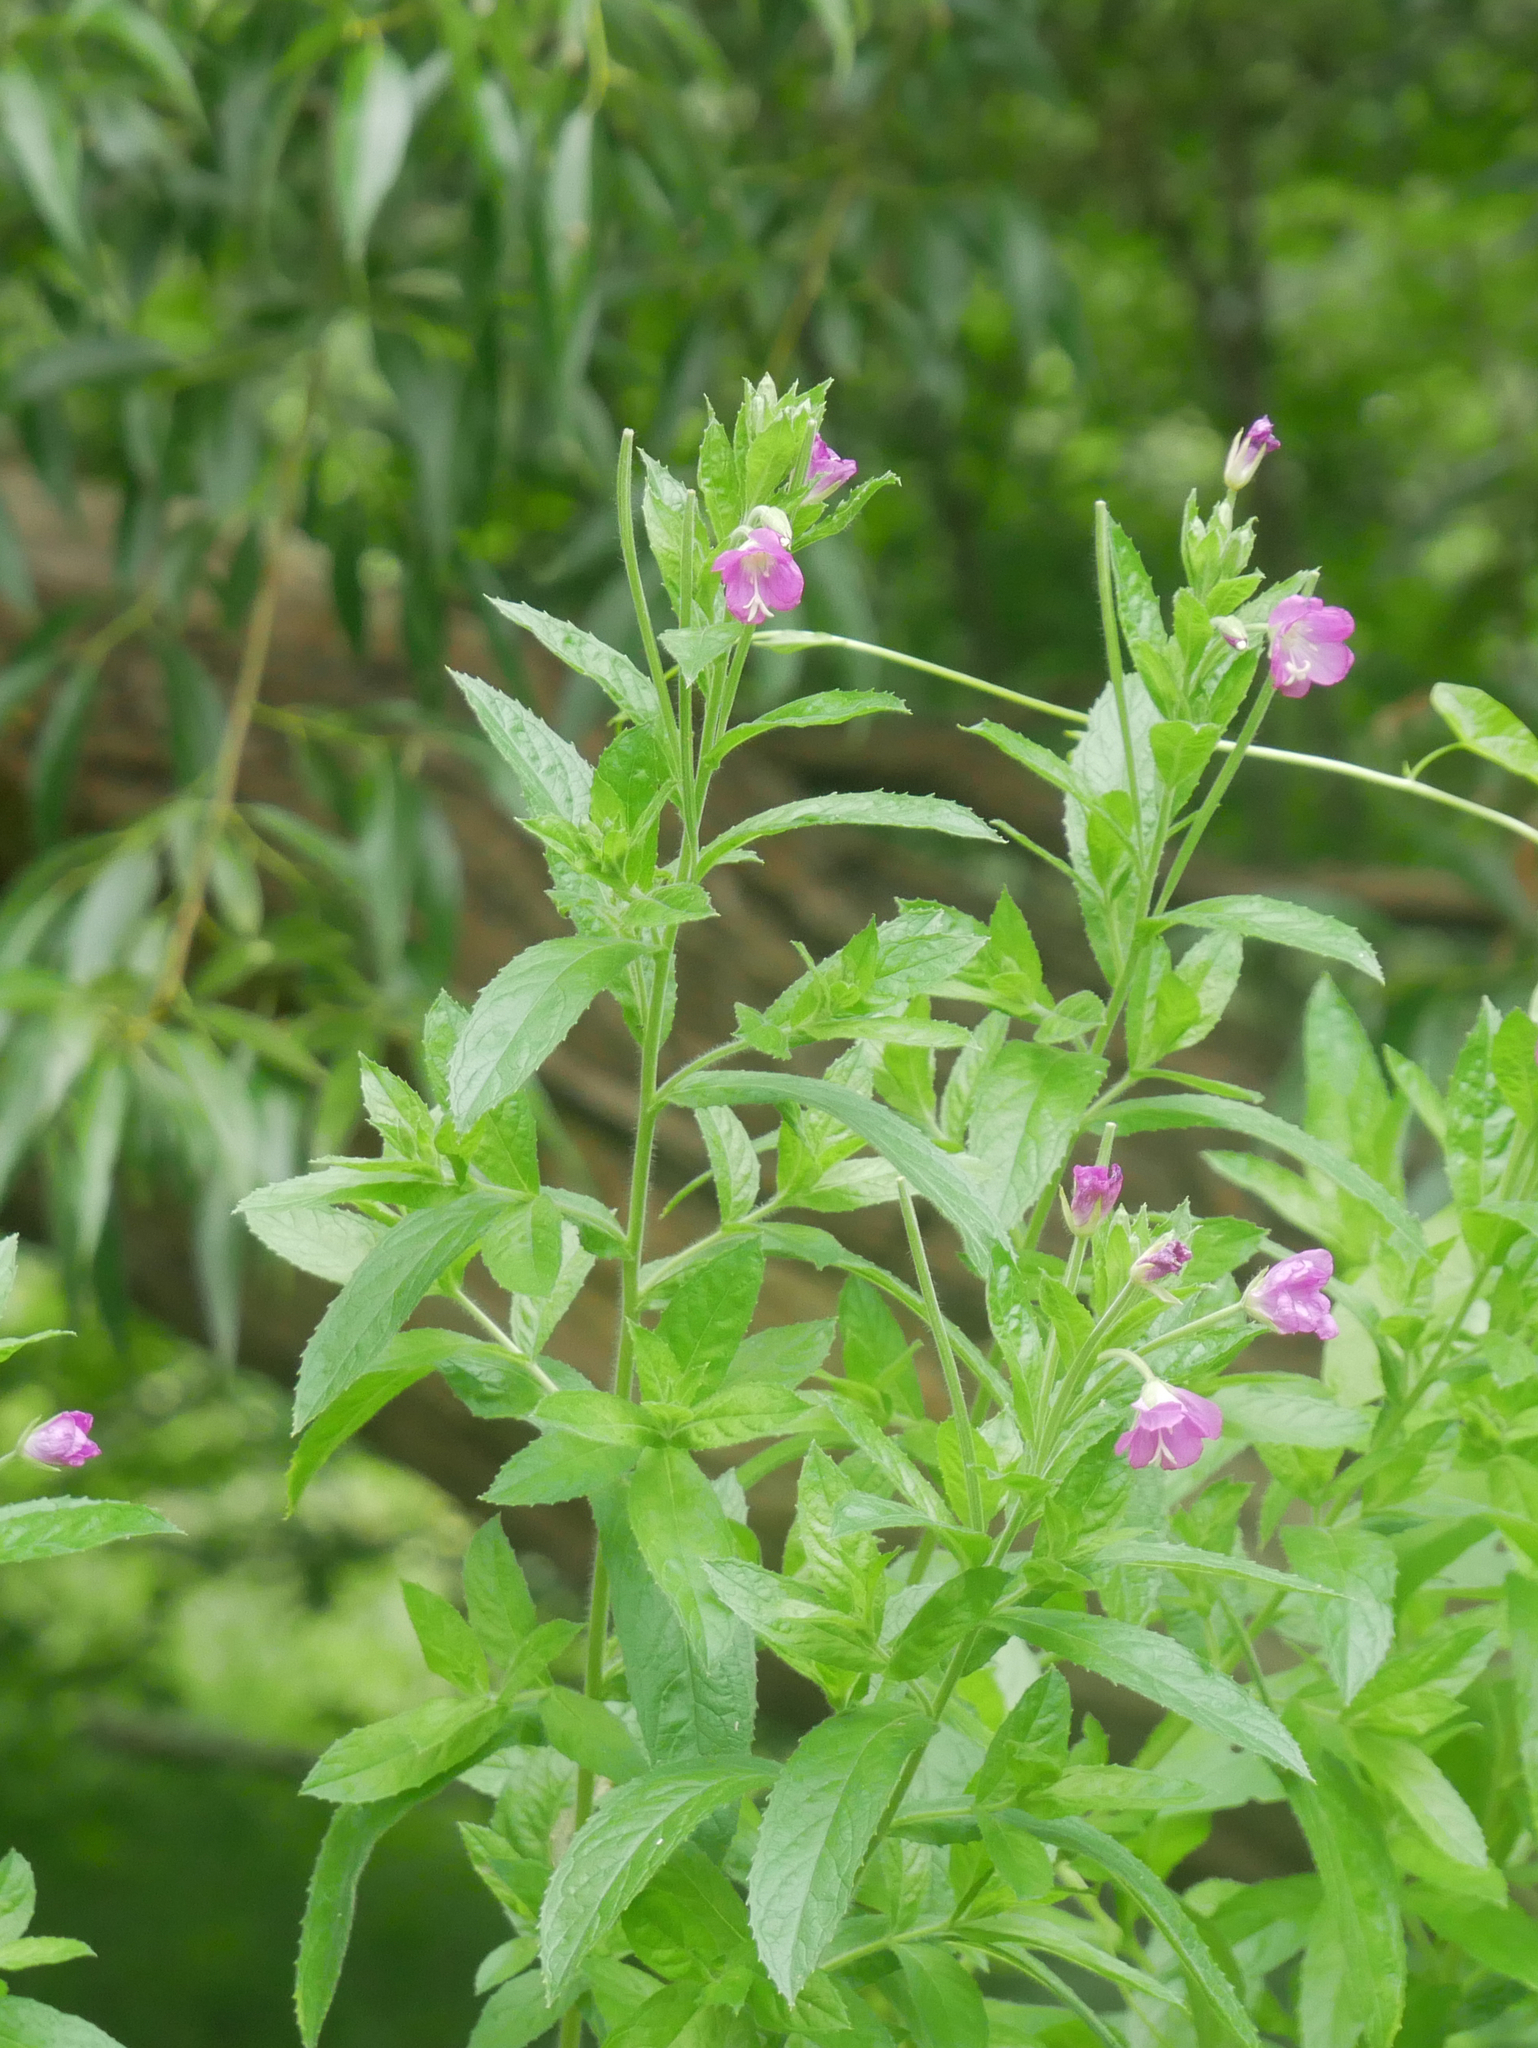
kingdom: Plantae
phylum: Tracheophyta
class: Magnoliopsida
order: Myrtales
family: Onagraceae
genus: Epilobium
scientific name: Epilobium hirsutum
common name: Great willowherb
